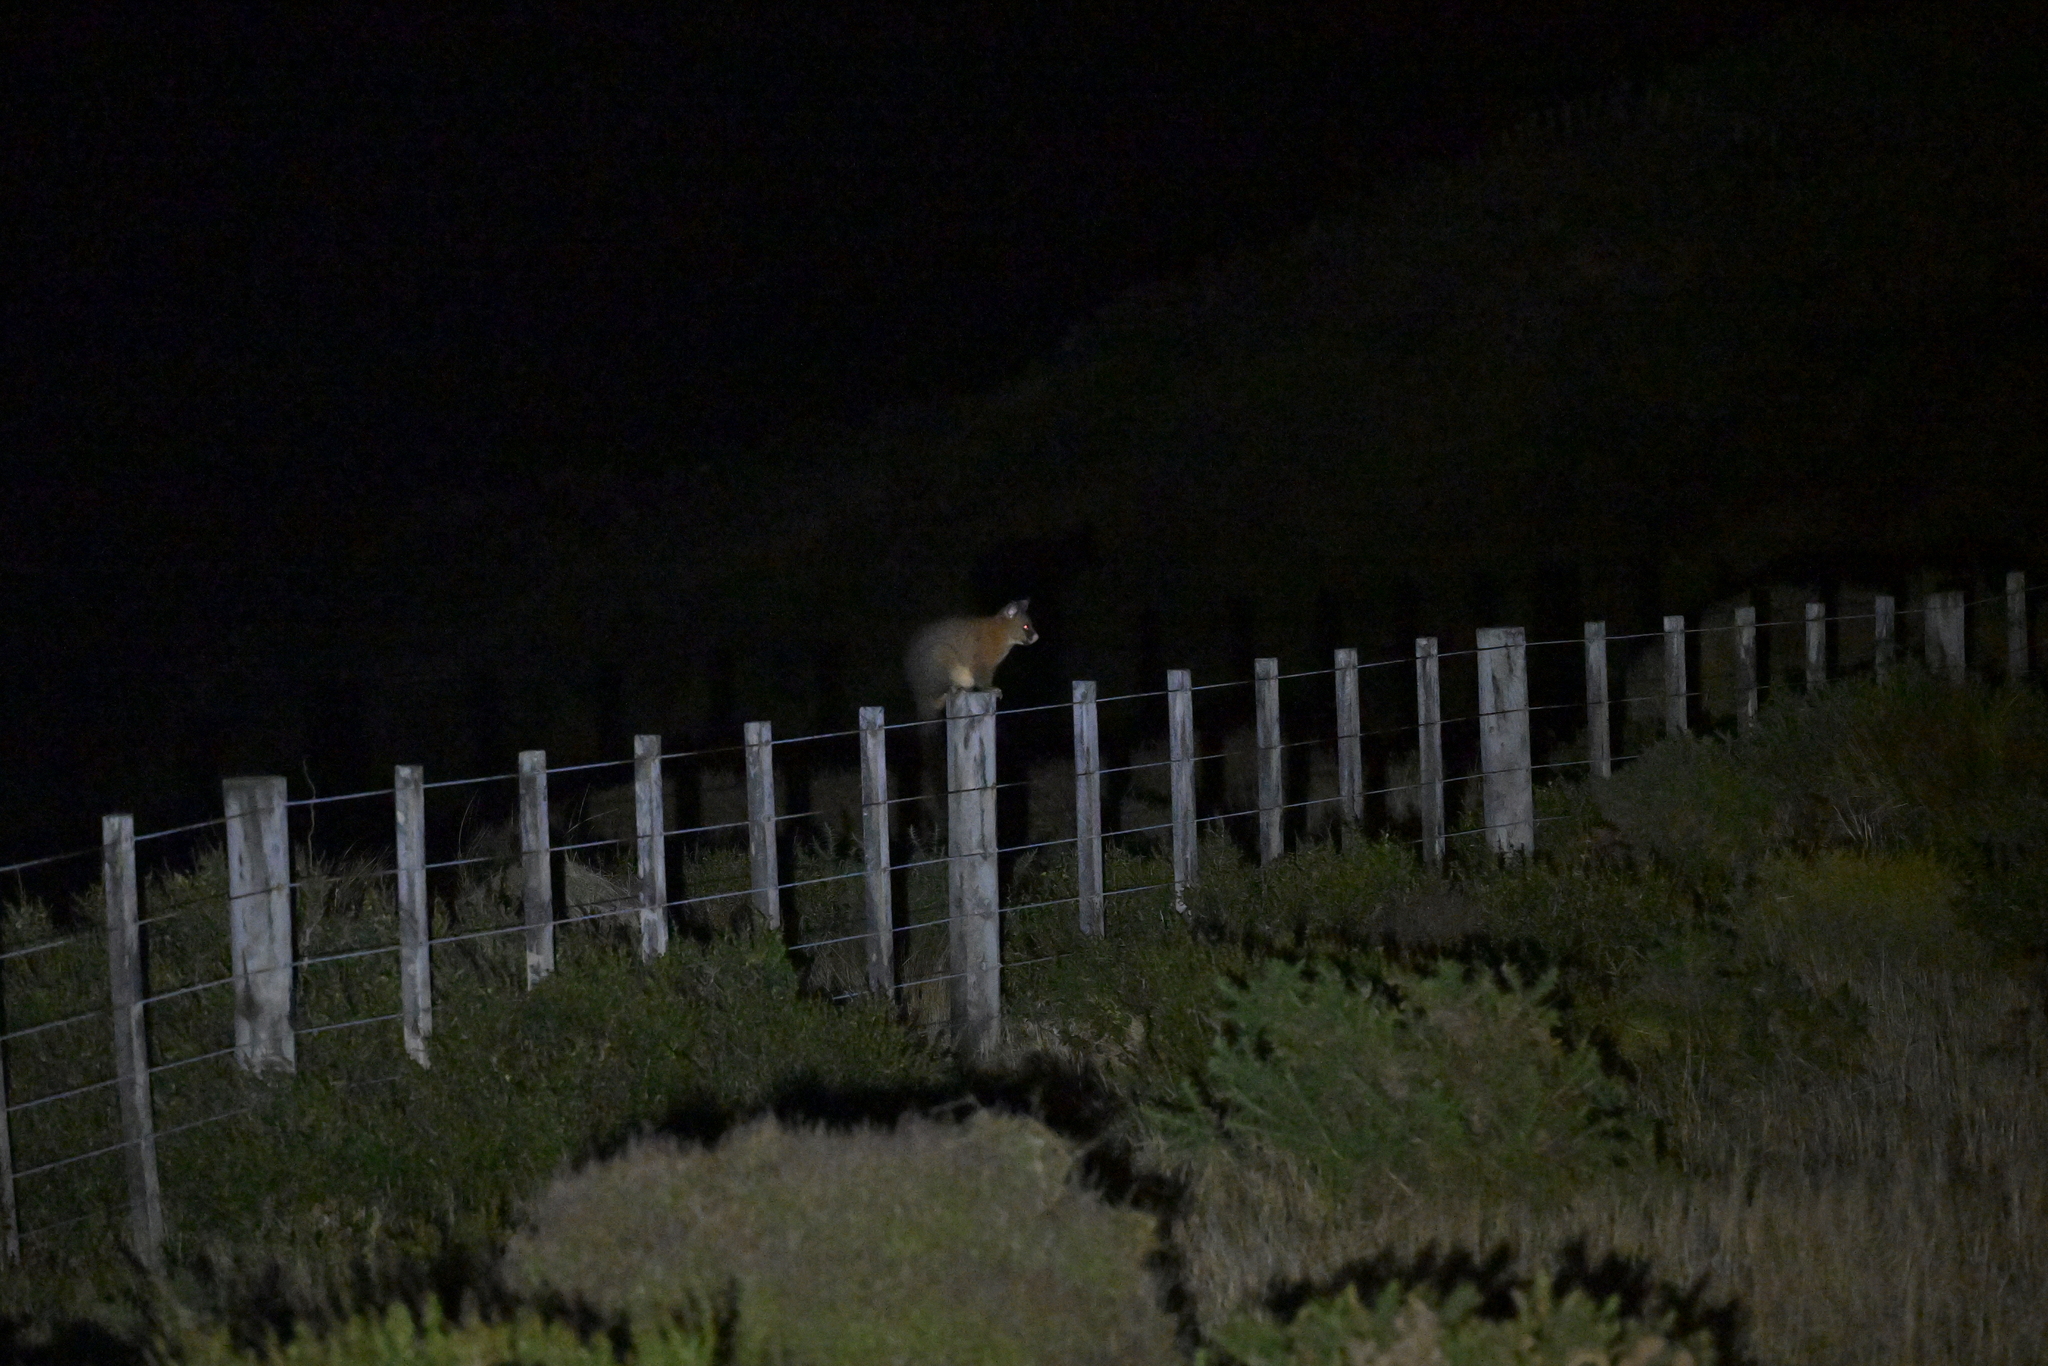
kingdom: Animalia
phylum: Chordata
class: Mammalia
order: Diprotodontia
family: Phalangeridae
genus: Trichosurus
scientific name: Trichosurus vulpecula
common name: Common brushtail
